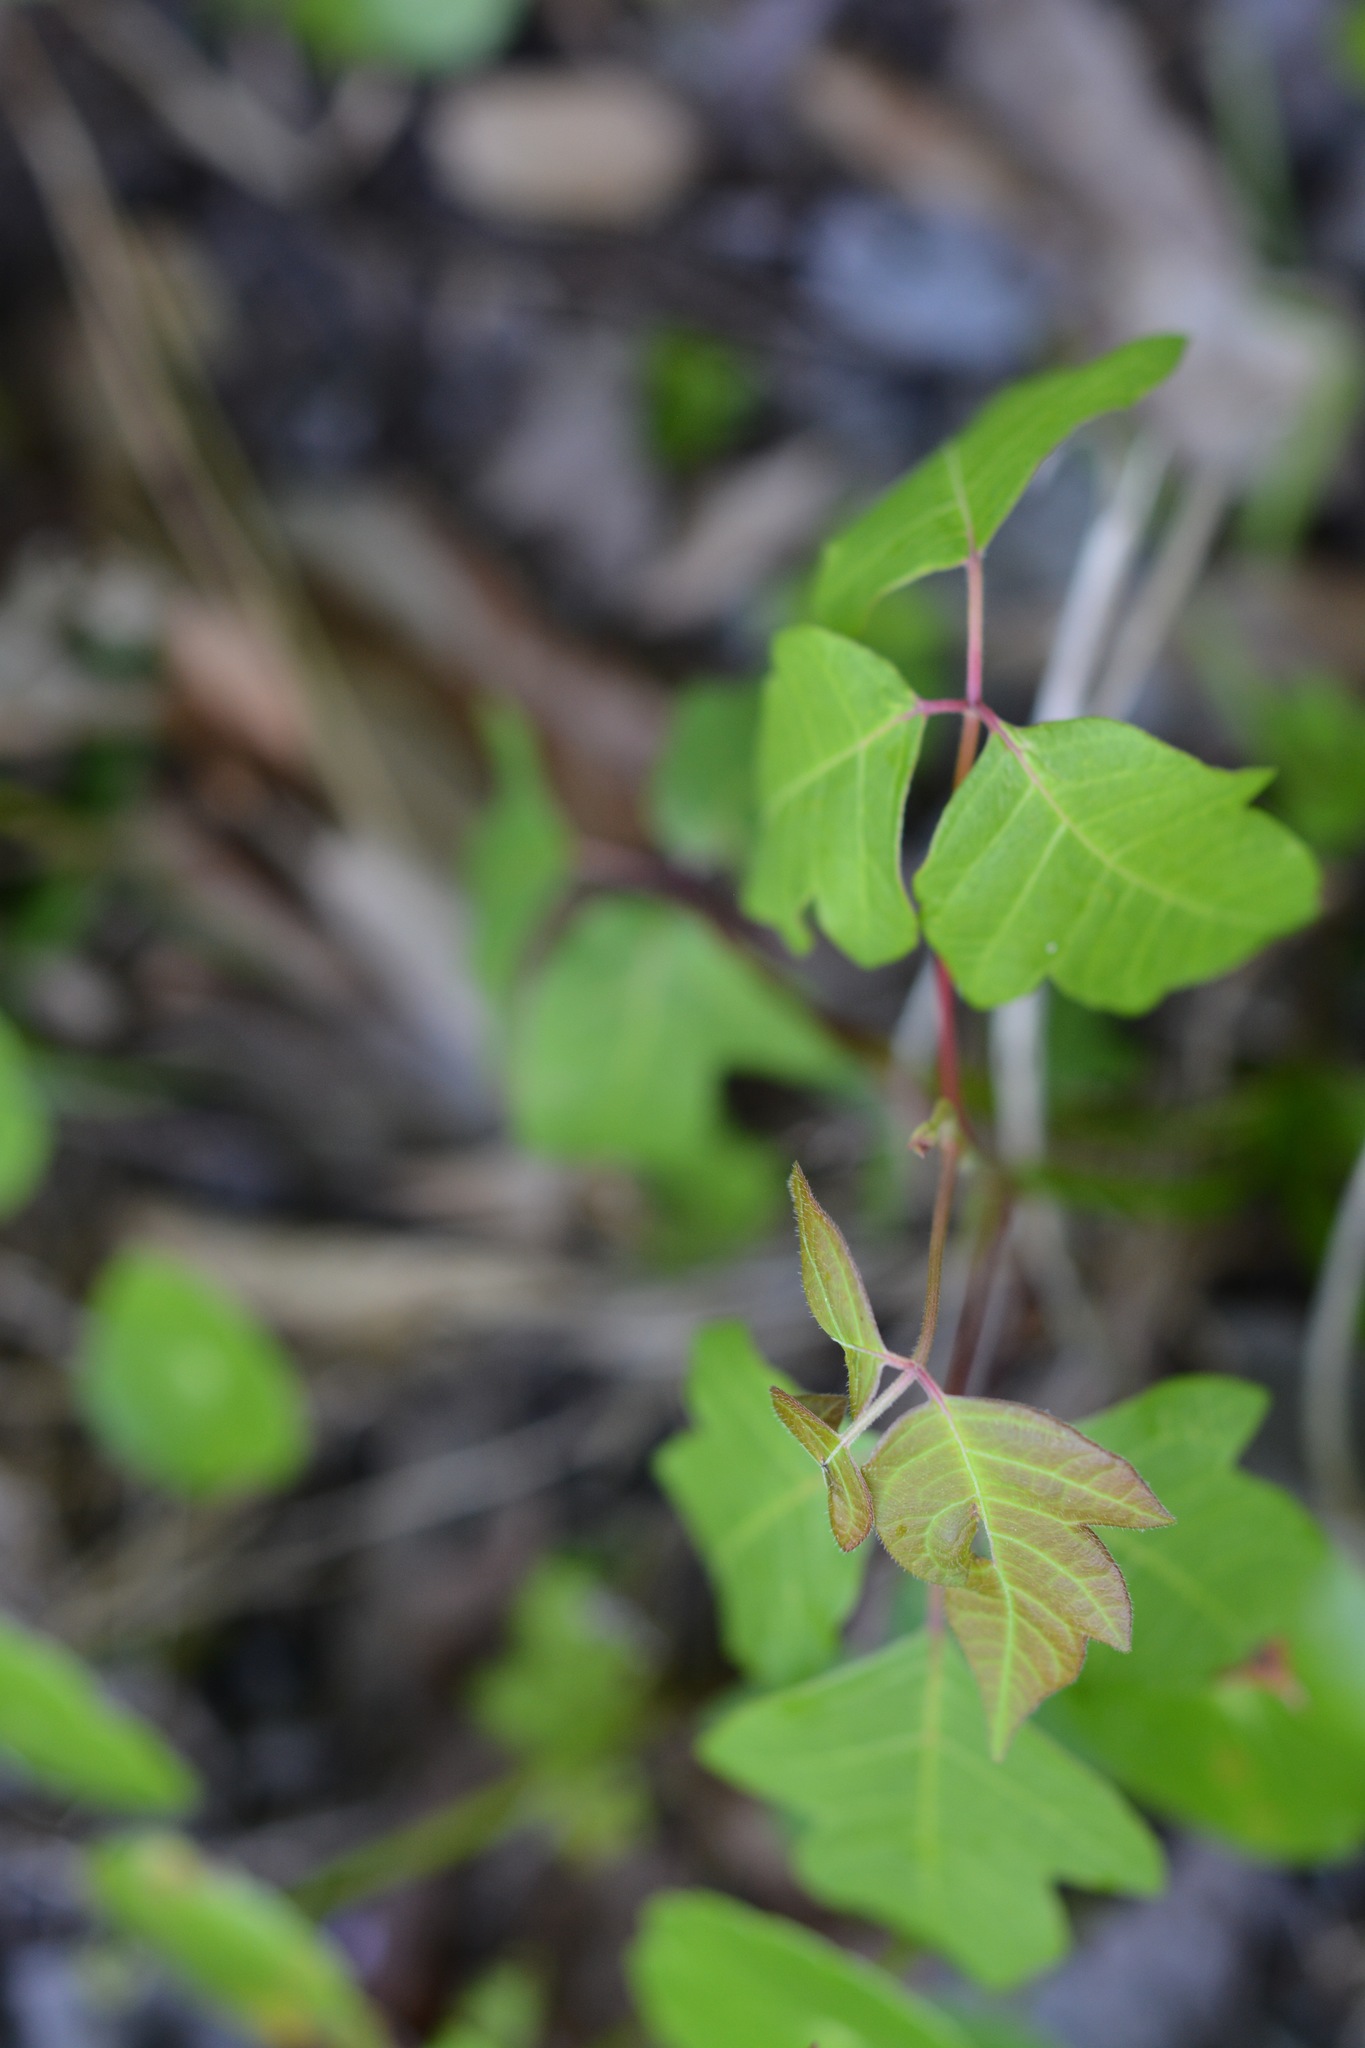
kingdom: Plantae
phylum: Tracheophyta
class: Magnoliopsida
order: Sapindales
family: Anacardiaceae
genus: Toxicodendron
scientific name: Toxicodendron radicans
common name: Poison ivy
